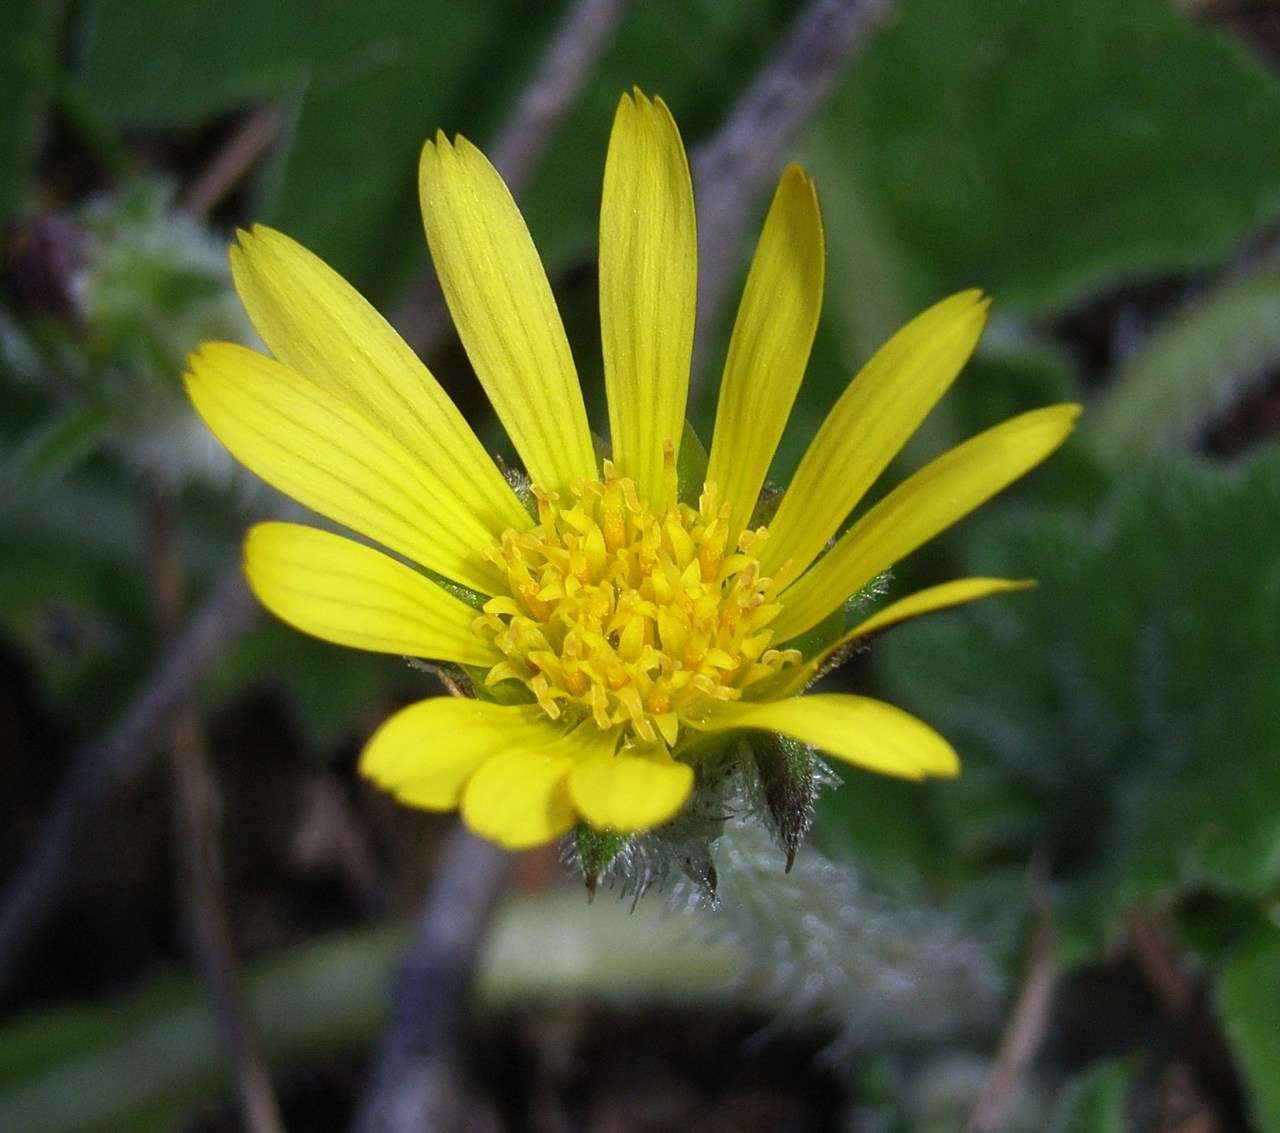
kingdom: Plantae
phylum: Tracheophyta
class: Magnoliopsida
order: Asterales
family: Asteraceae
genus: Cymbonotus
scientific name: Cymbonotus preissianus
